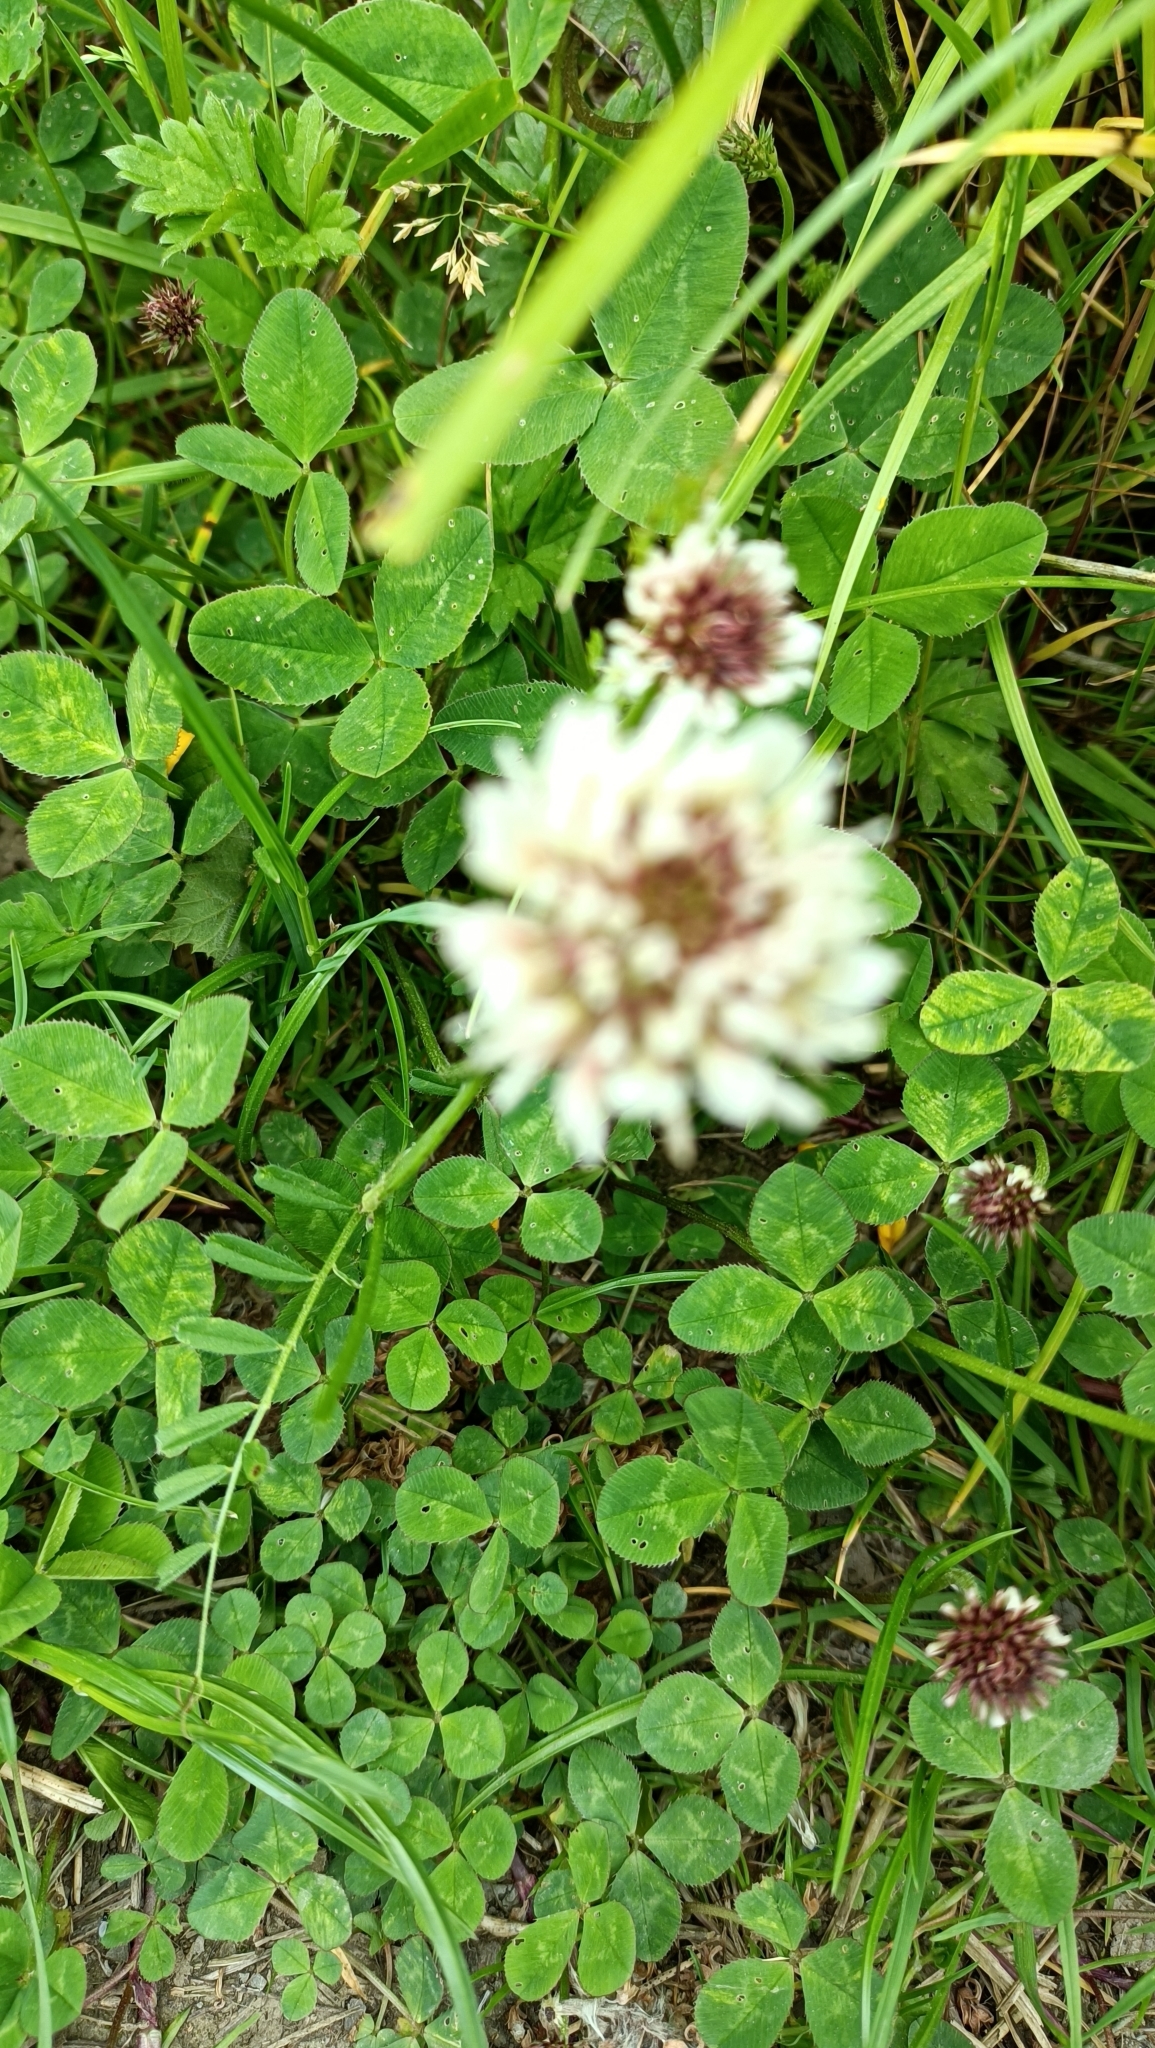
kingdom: Plantae
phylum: Tracheophyta
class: Magnoliopsida
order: Fabales
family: Fabaceae
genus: Trifolium
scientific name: Trifolium repens
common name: White clover
